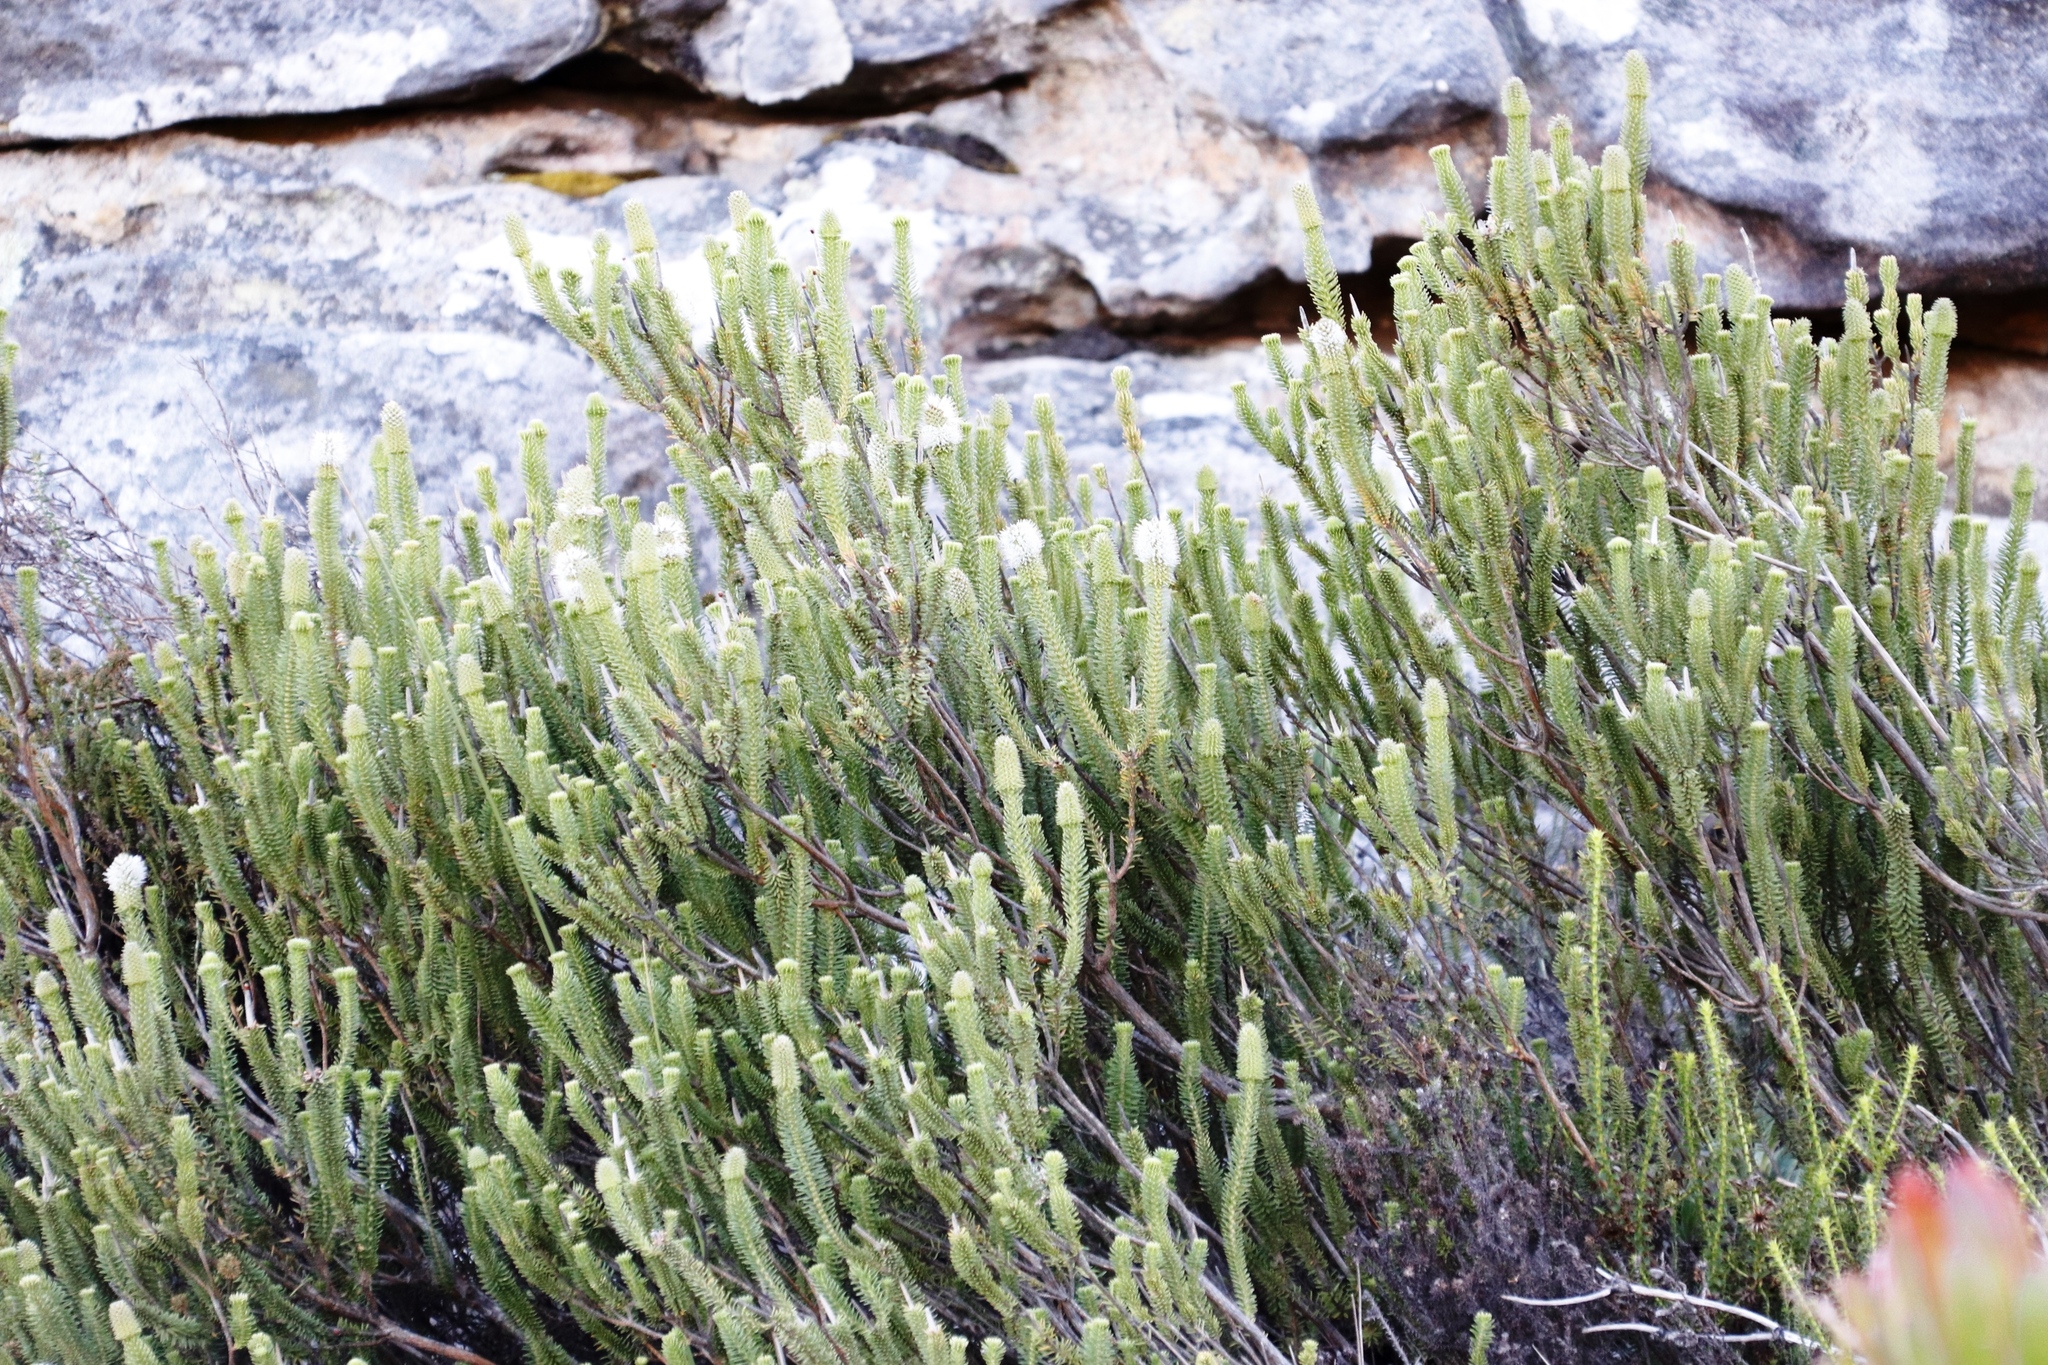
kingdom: Plantae
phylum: Tracheophyta
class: Magnoliopsida
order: Lamiales
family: Stilbaceae
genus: Stilbe
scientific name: Stilbe vestita
